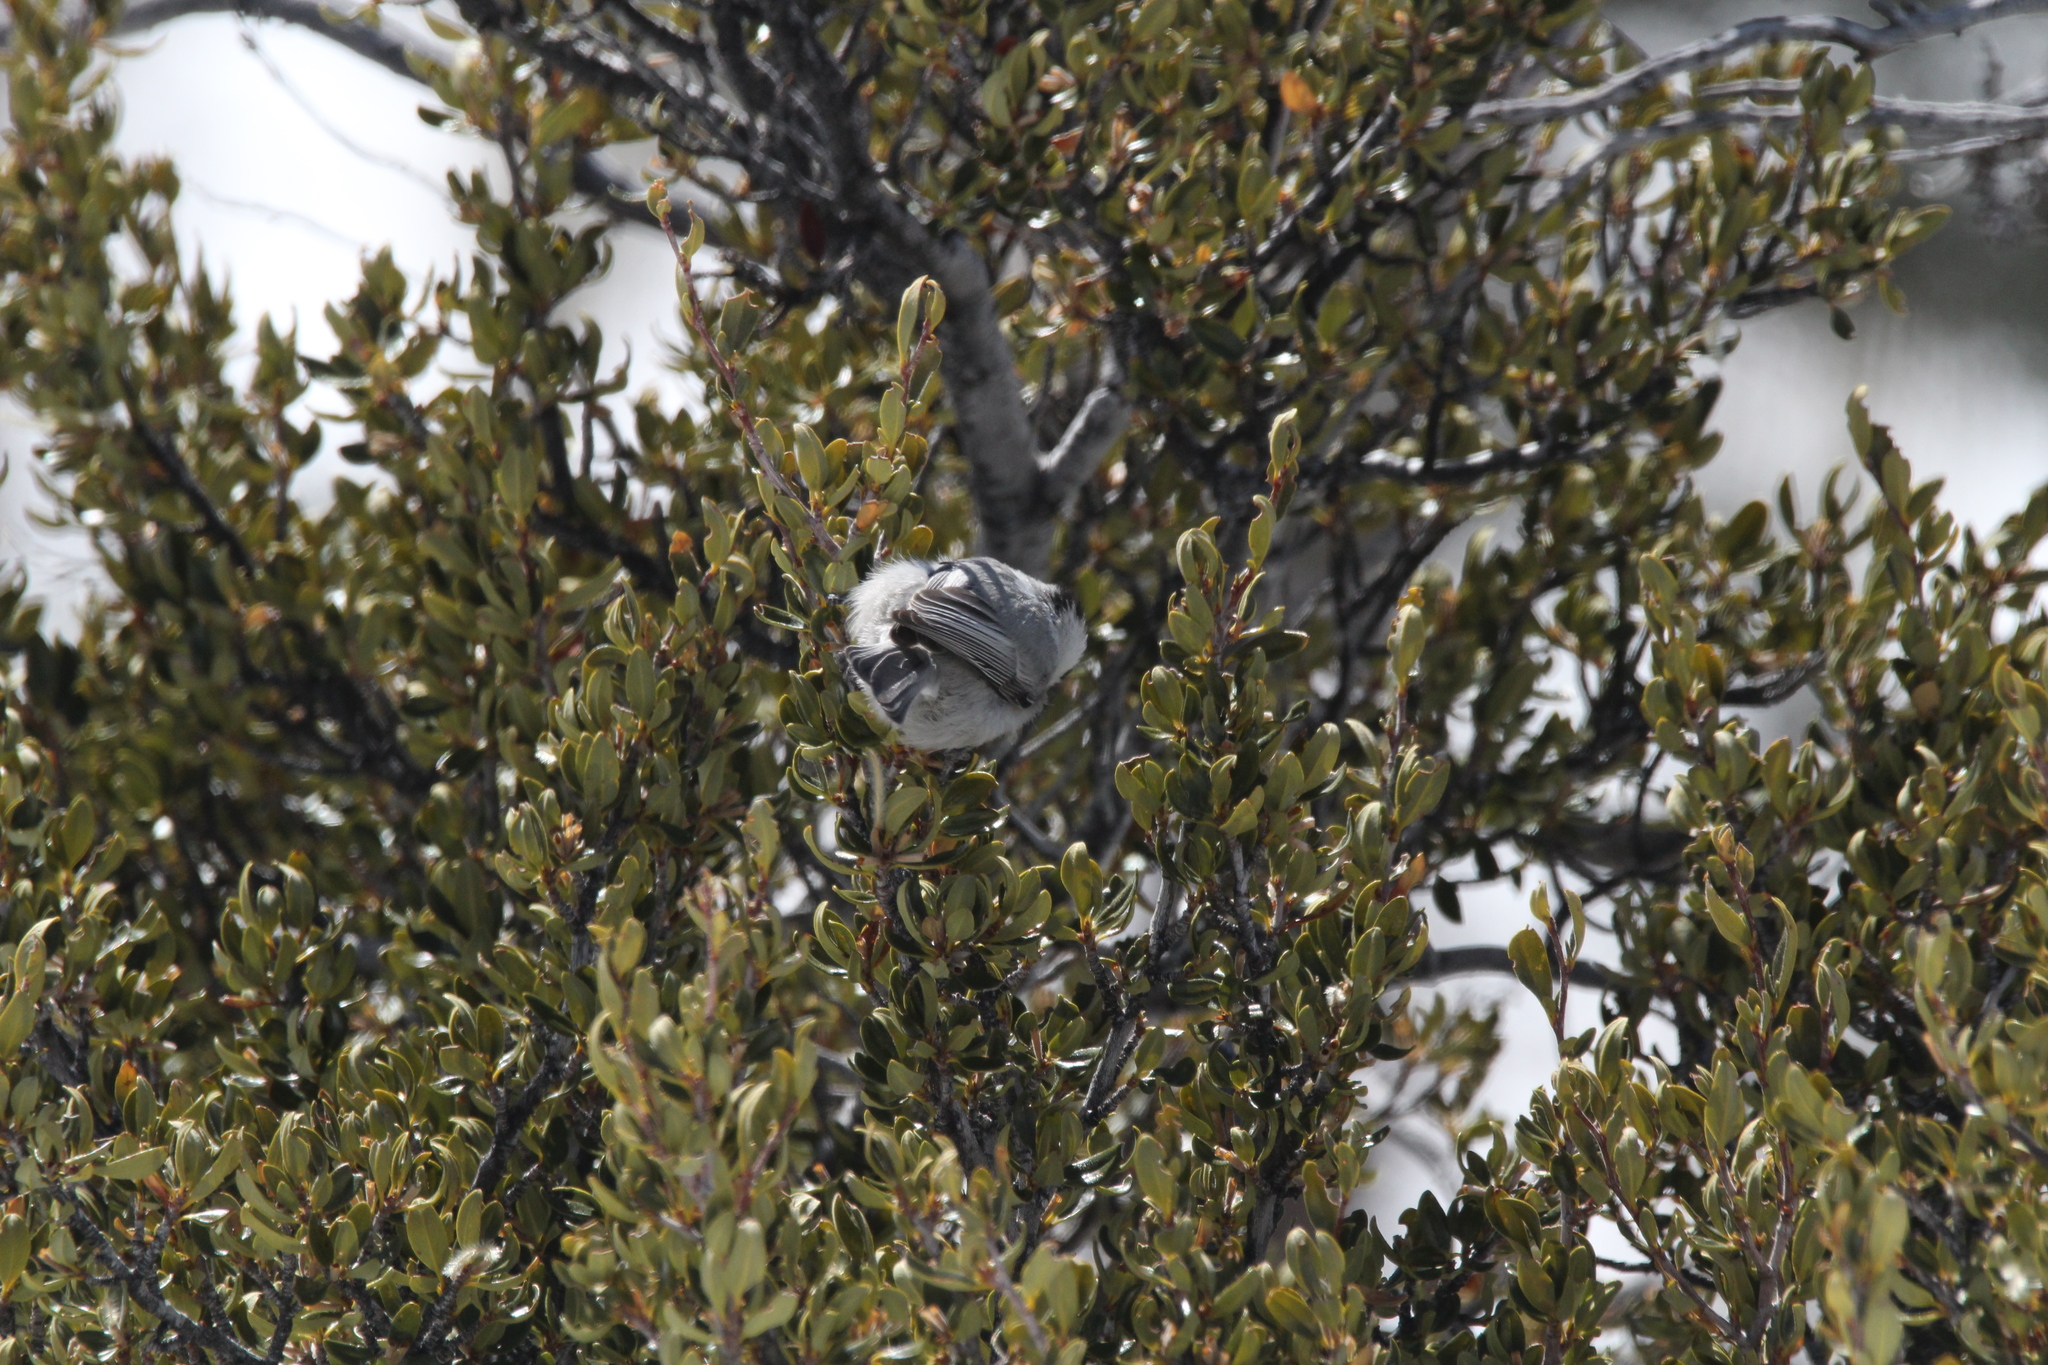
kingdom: Animalia
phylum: Chordata
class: Aves
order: Passeriformes
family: Paridae
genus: Poecile
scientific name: Poecile gambeli
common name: Mountain chickadee
